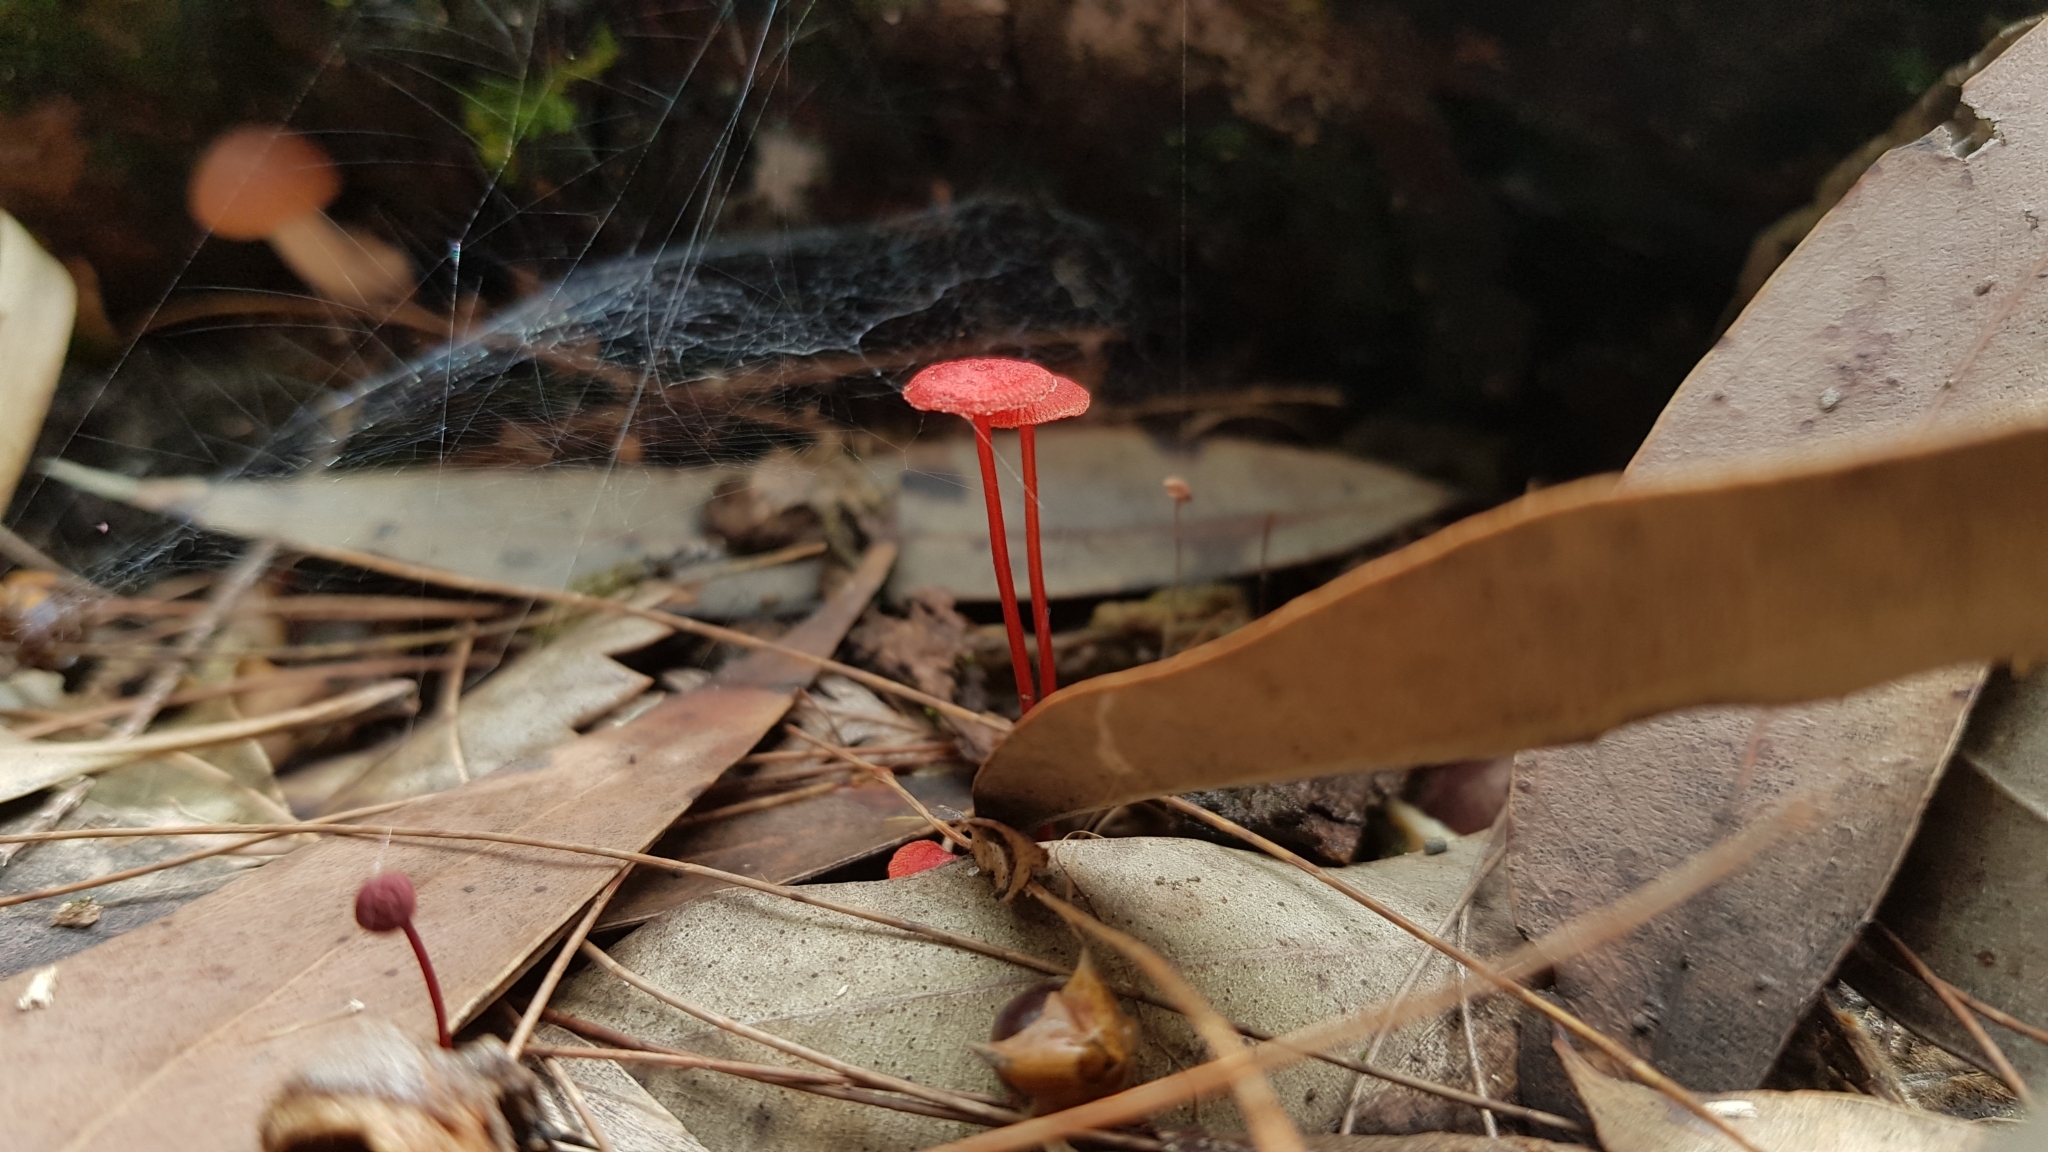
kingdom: Fungi
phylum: Basidiomycota
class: Agaricomycetes
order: Agaricales
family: Mycenaceae
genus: Cruentomycena
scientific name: Cruentomycena viscidocruenta
